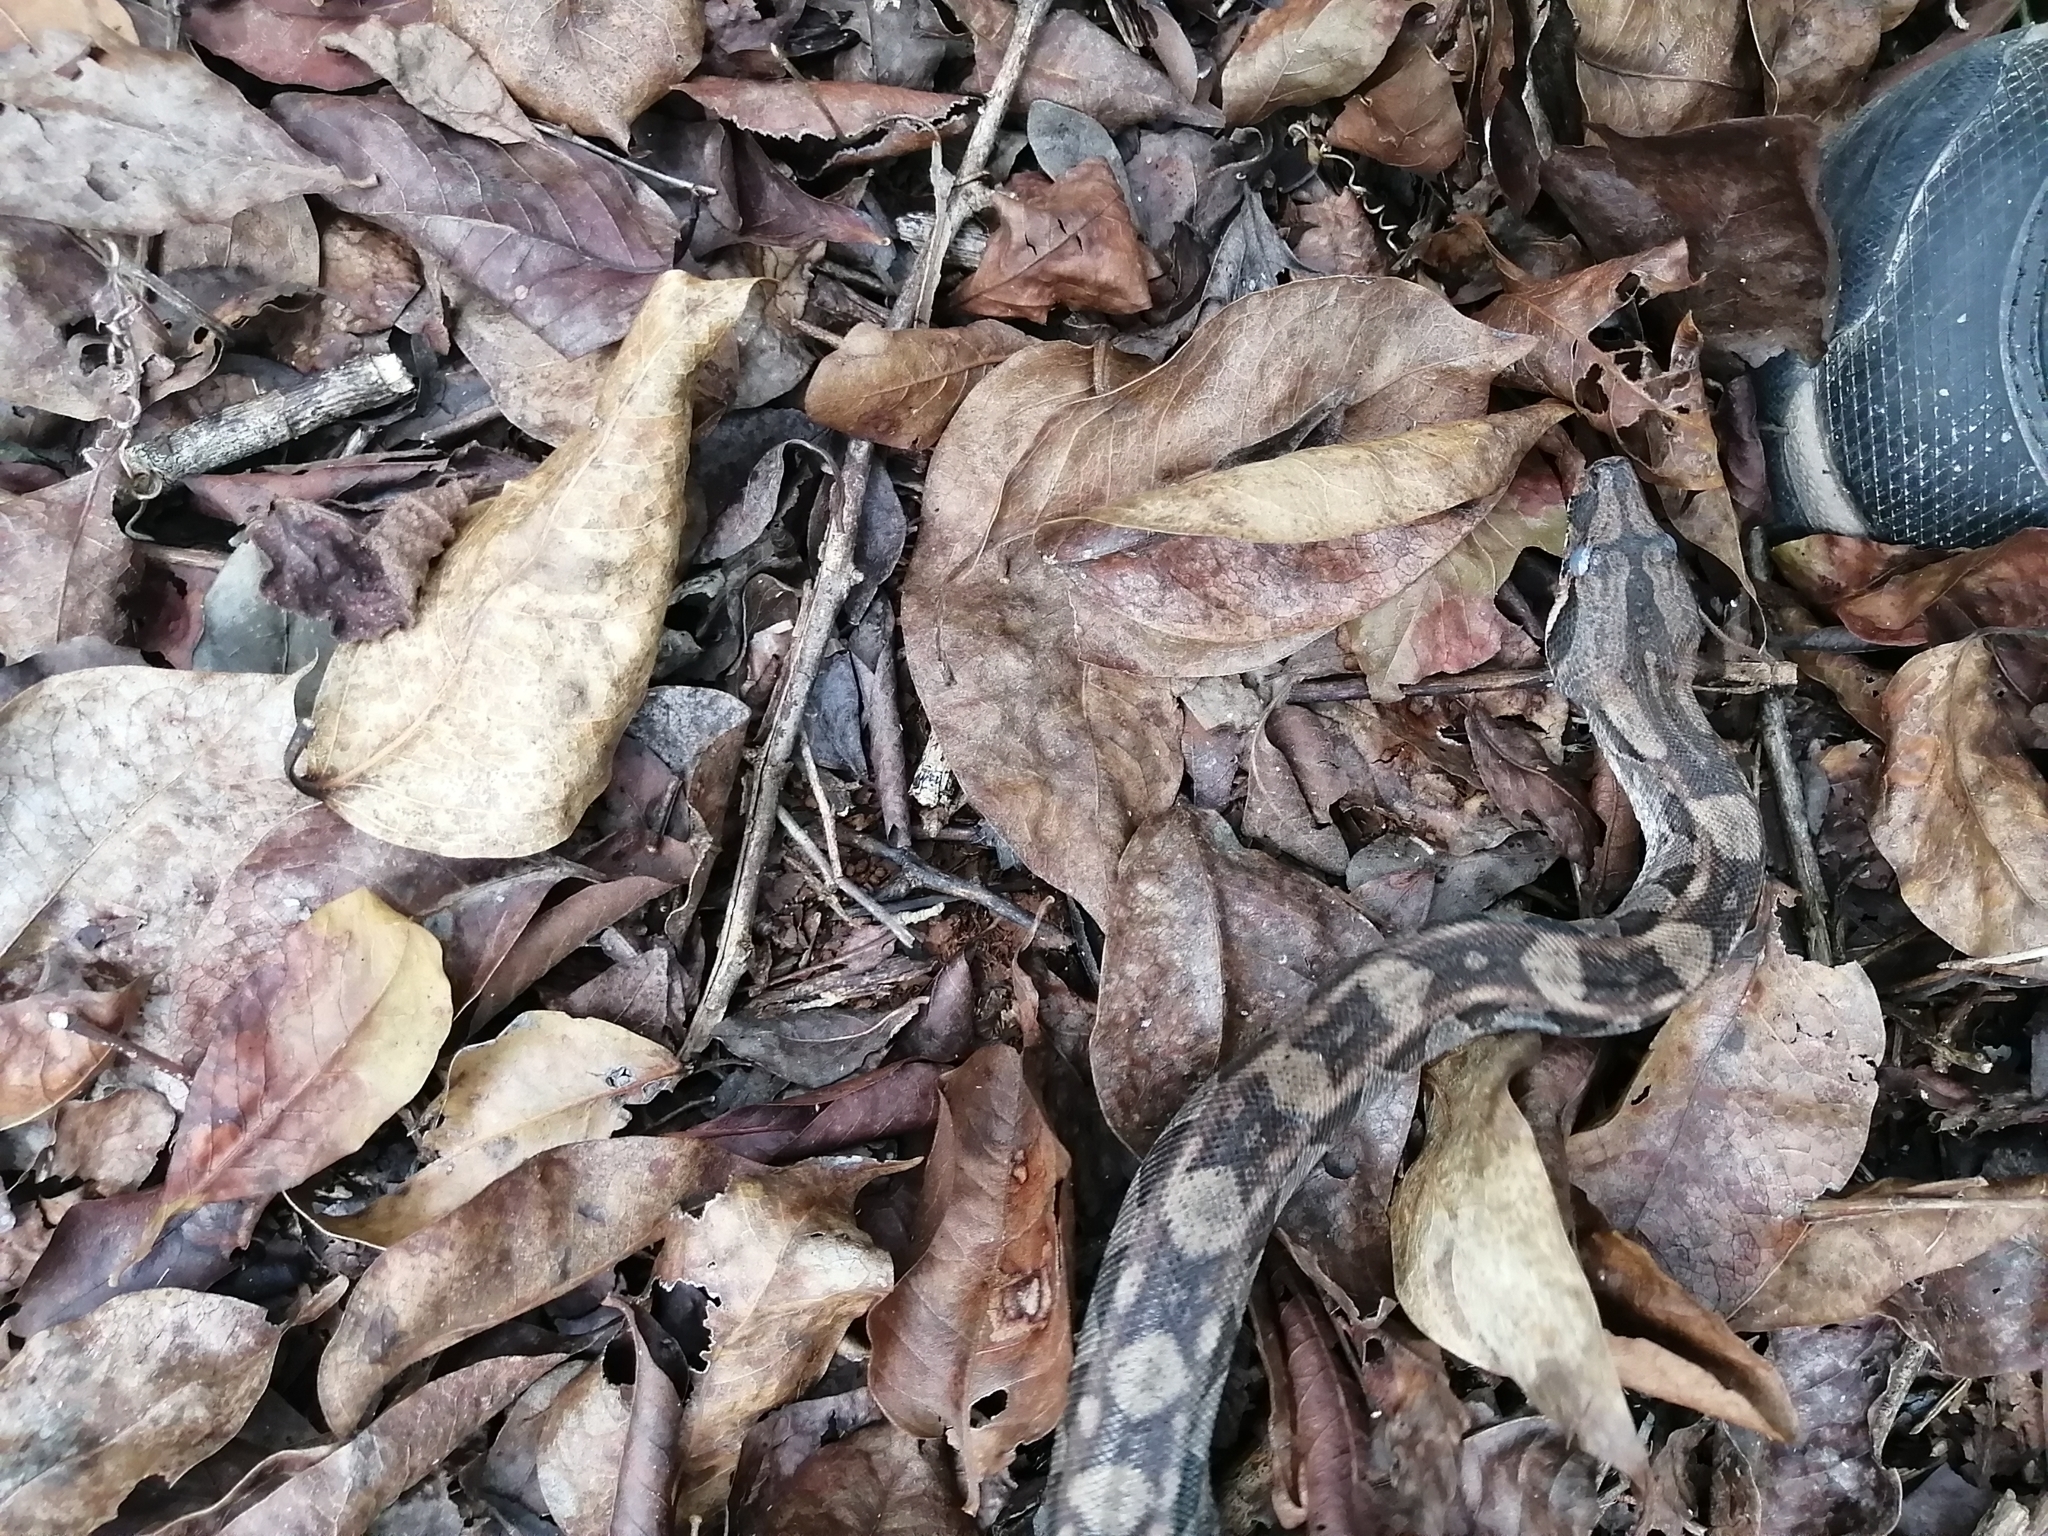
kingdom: Animalia
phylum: Chordata
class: Squamata
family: Boidae
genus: Boa
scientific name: Boa imperator
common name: Central american boa
